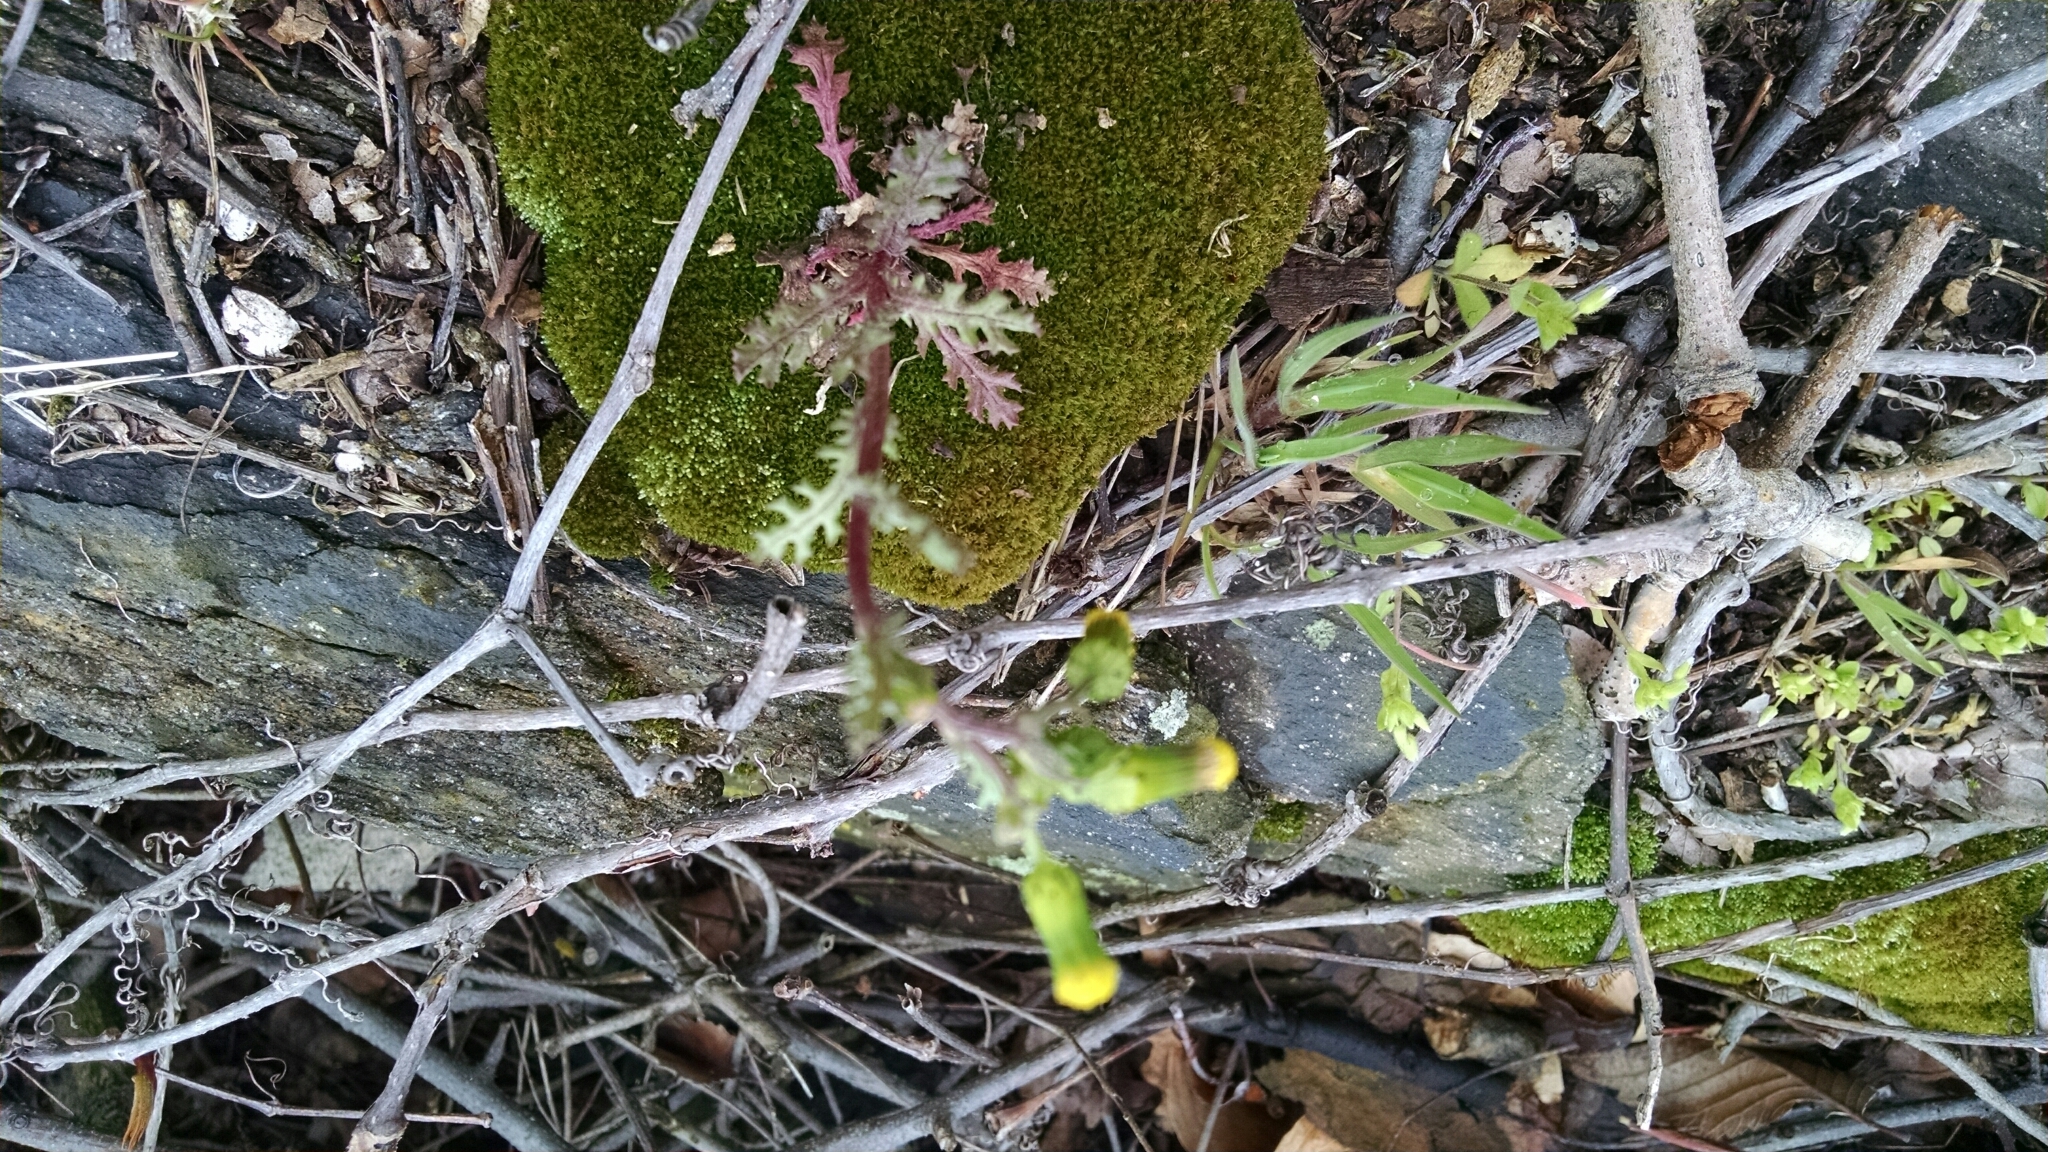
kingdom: Plantae
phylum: Tracheophyta
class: Magnoliopsida
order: Asterales
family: Asteraceae
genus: Senecio
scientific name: Senecio vulgaris
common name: Old-man-in-the-spring
